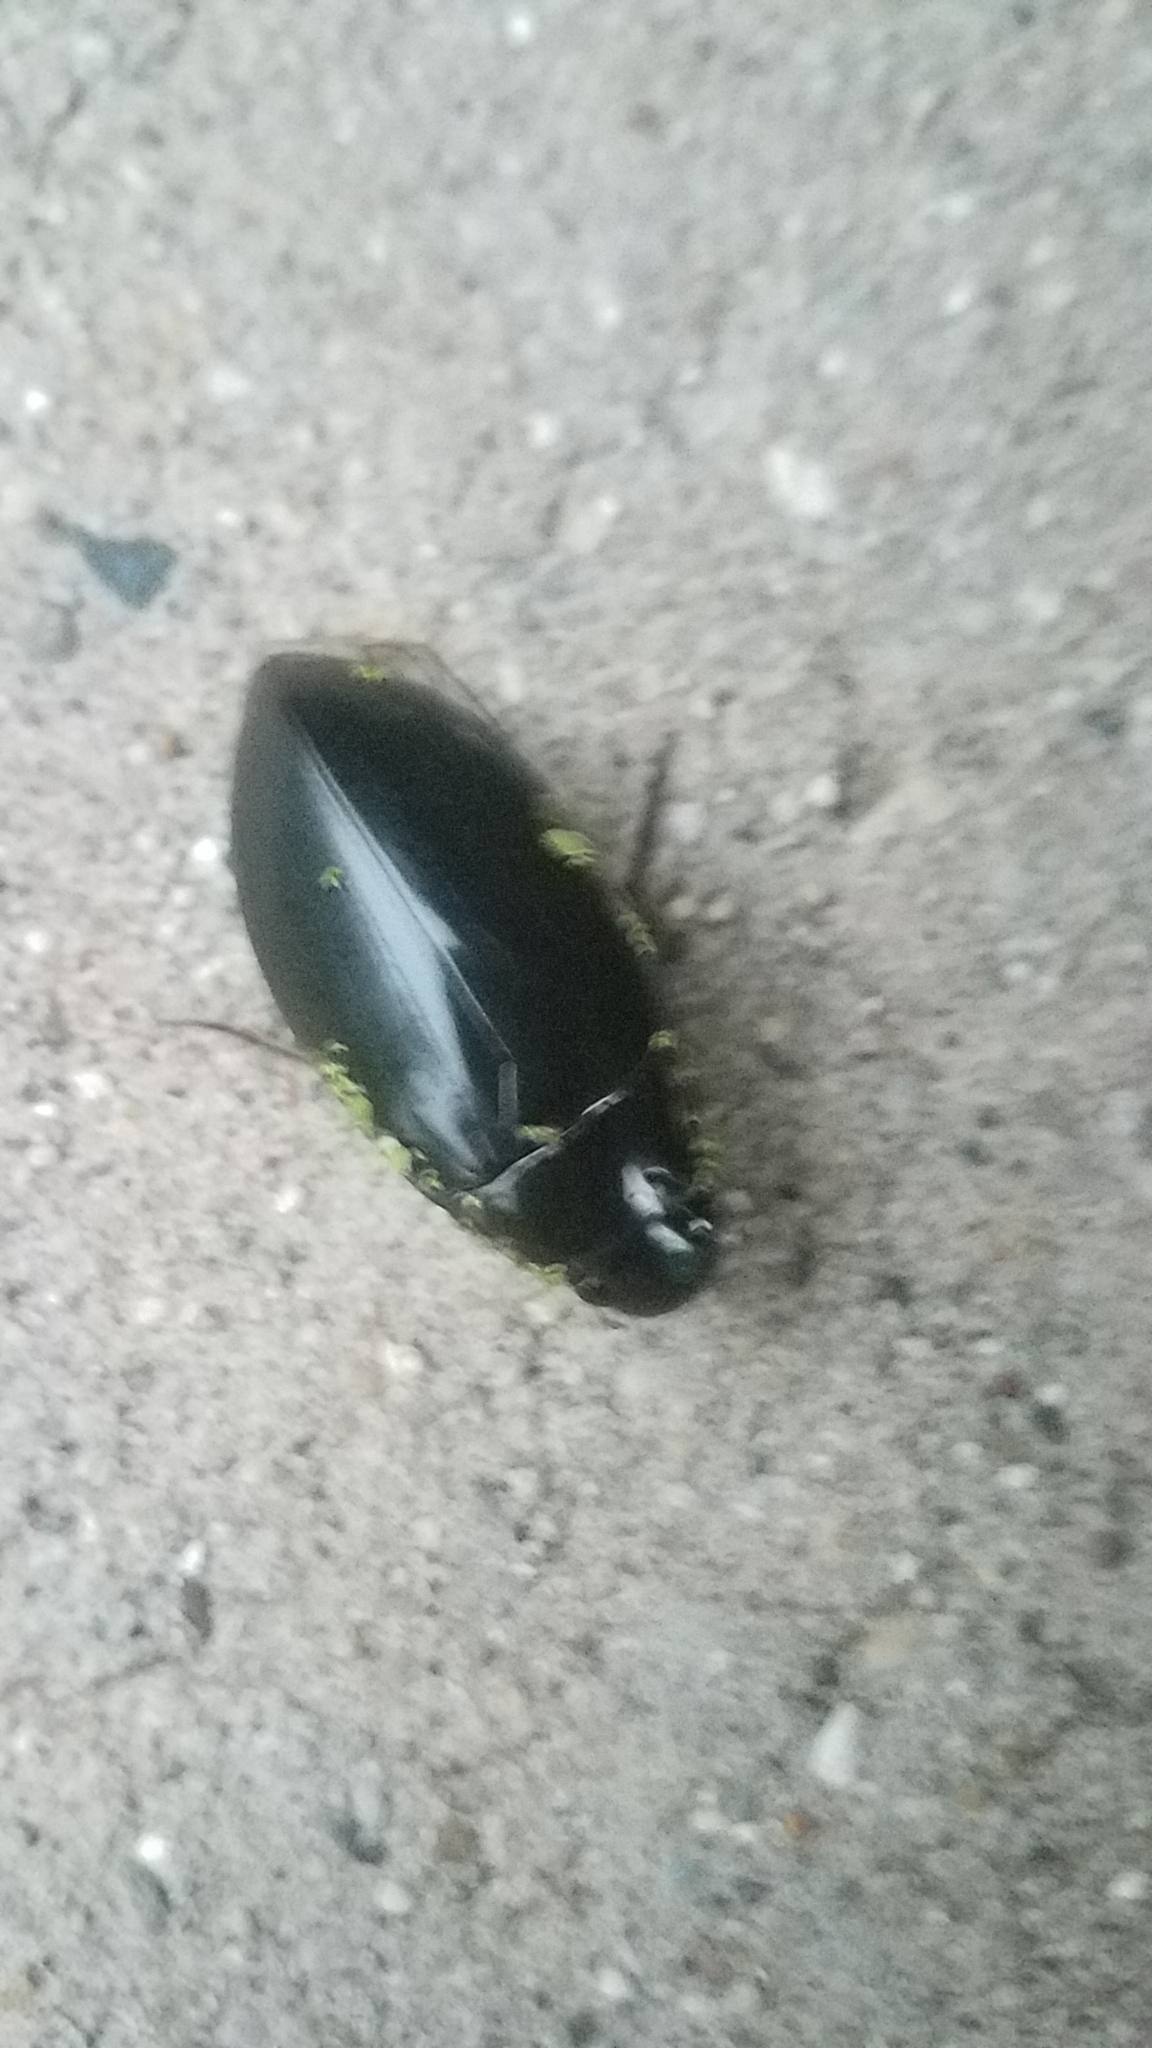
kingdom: Animalia
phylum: Arthropoda
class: Insecta
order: Coleoptera
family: Hydrophilidae
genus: Hydrophilus
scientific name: Hydrophilus triangularis
